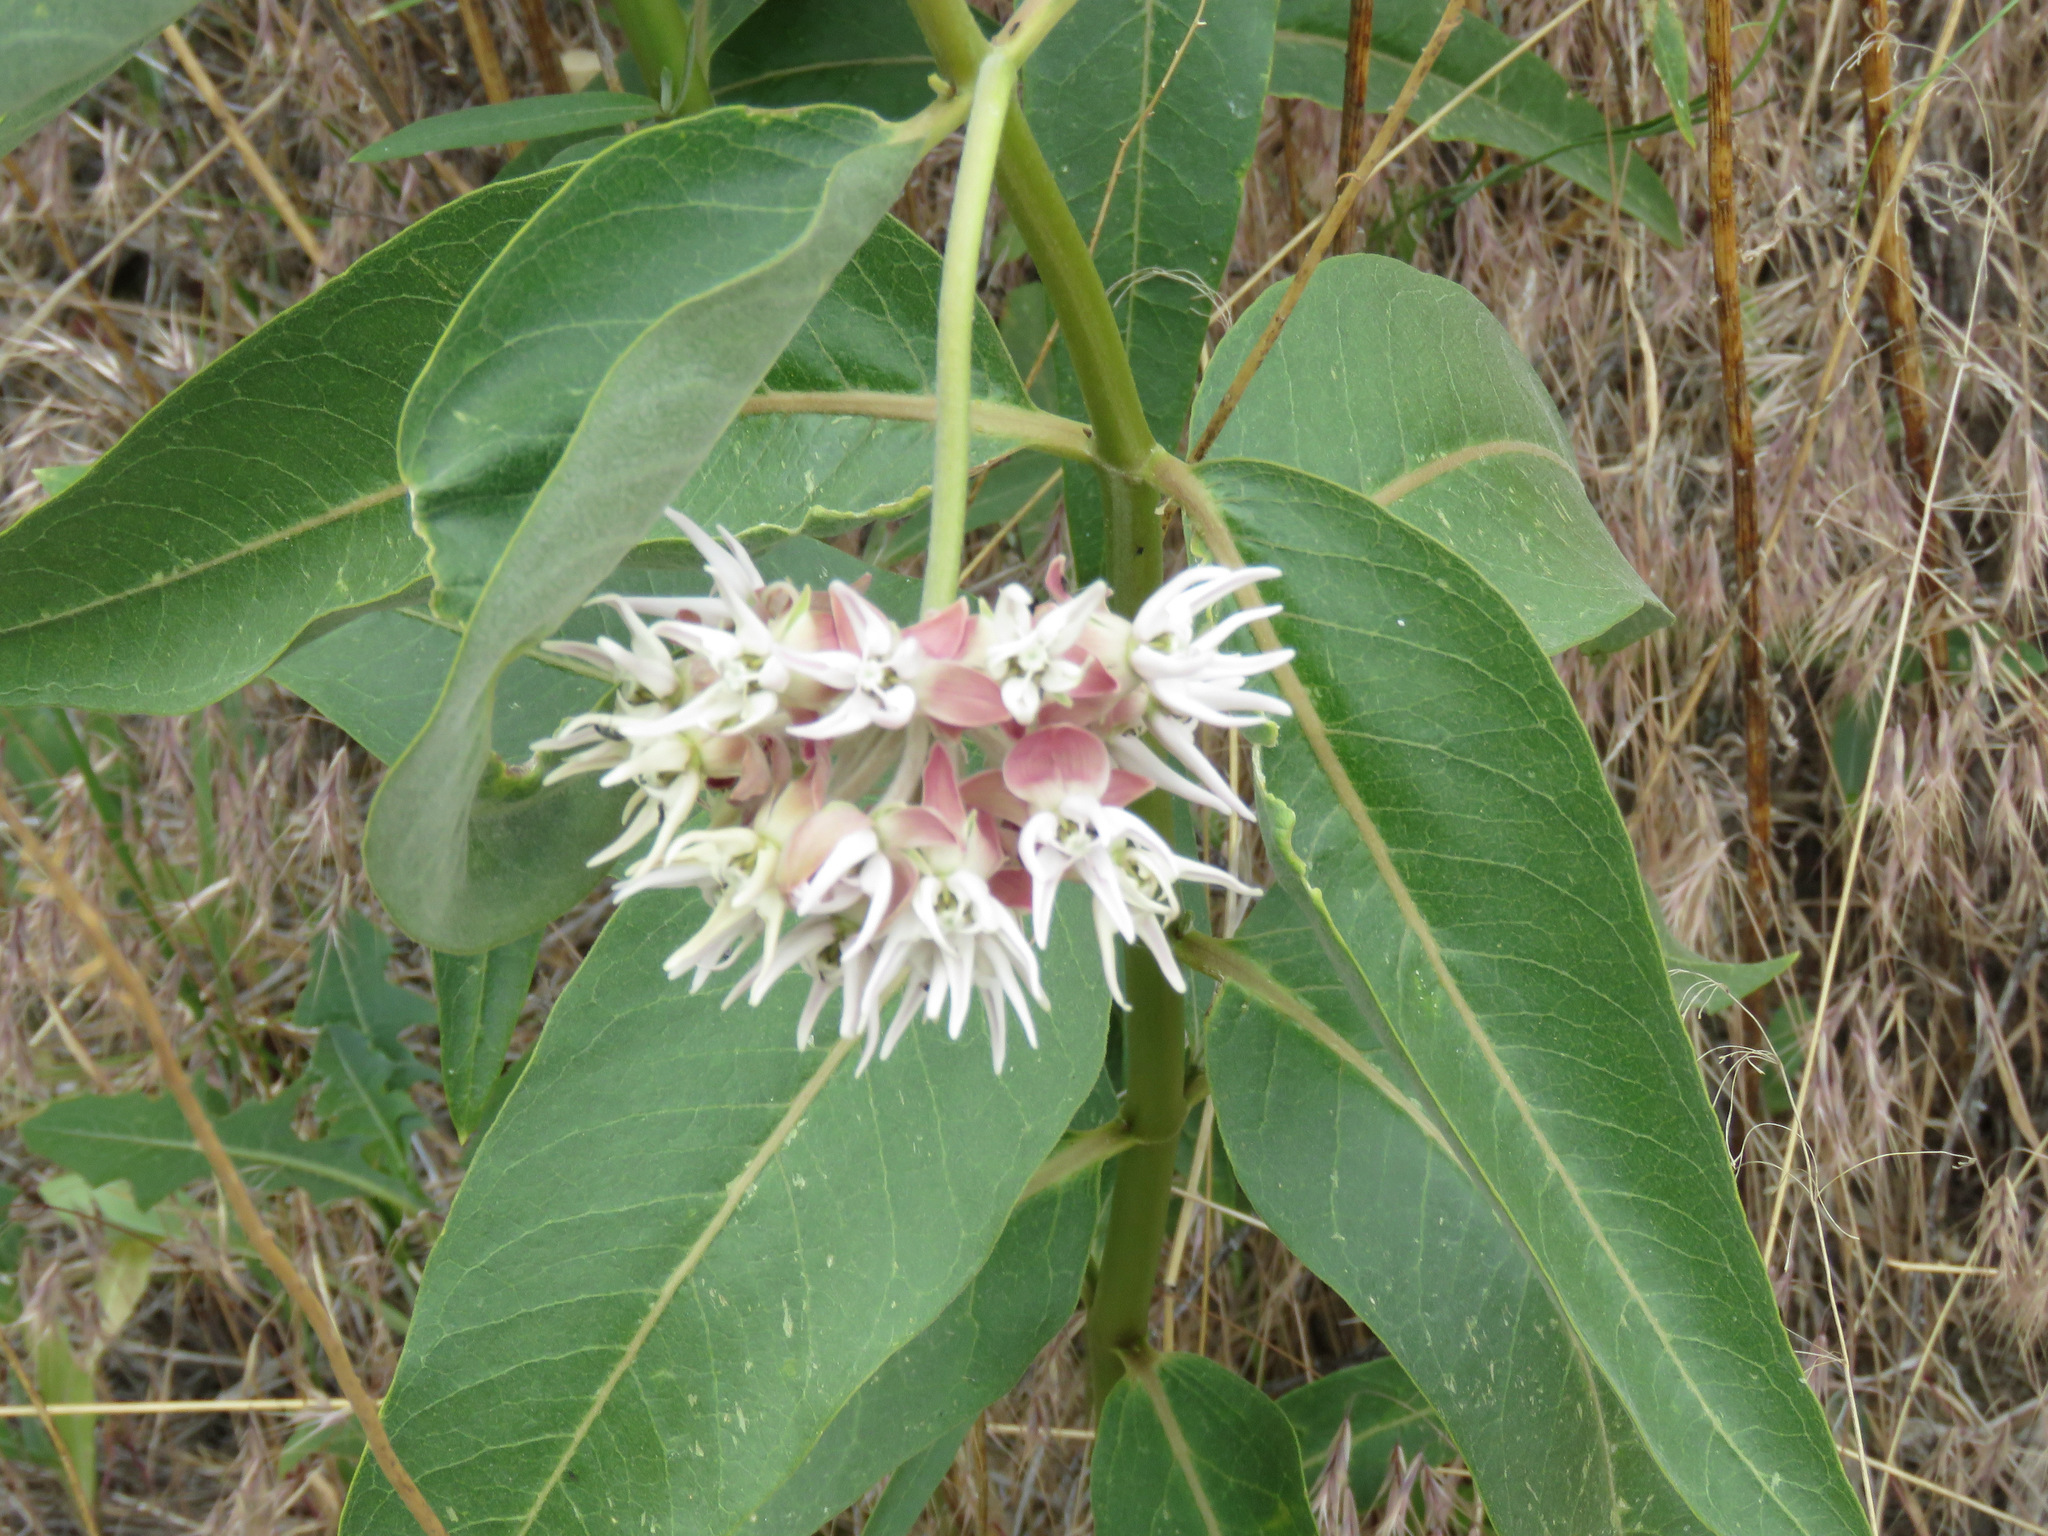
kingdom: Plantae
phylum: Tracheophyta
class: Magnoliopsida
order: Gentianales
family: Apocynaceae
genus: Asclepias
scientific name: Asclepias speciosa
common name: Showy milkweed
